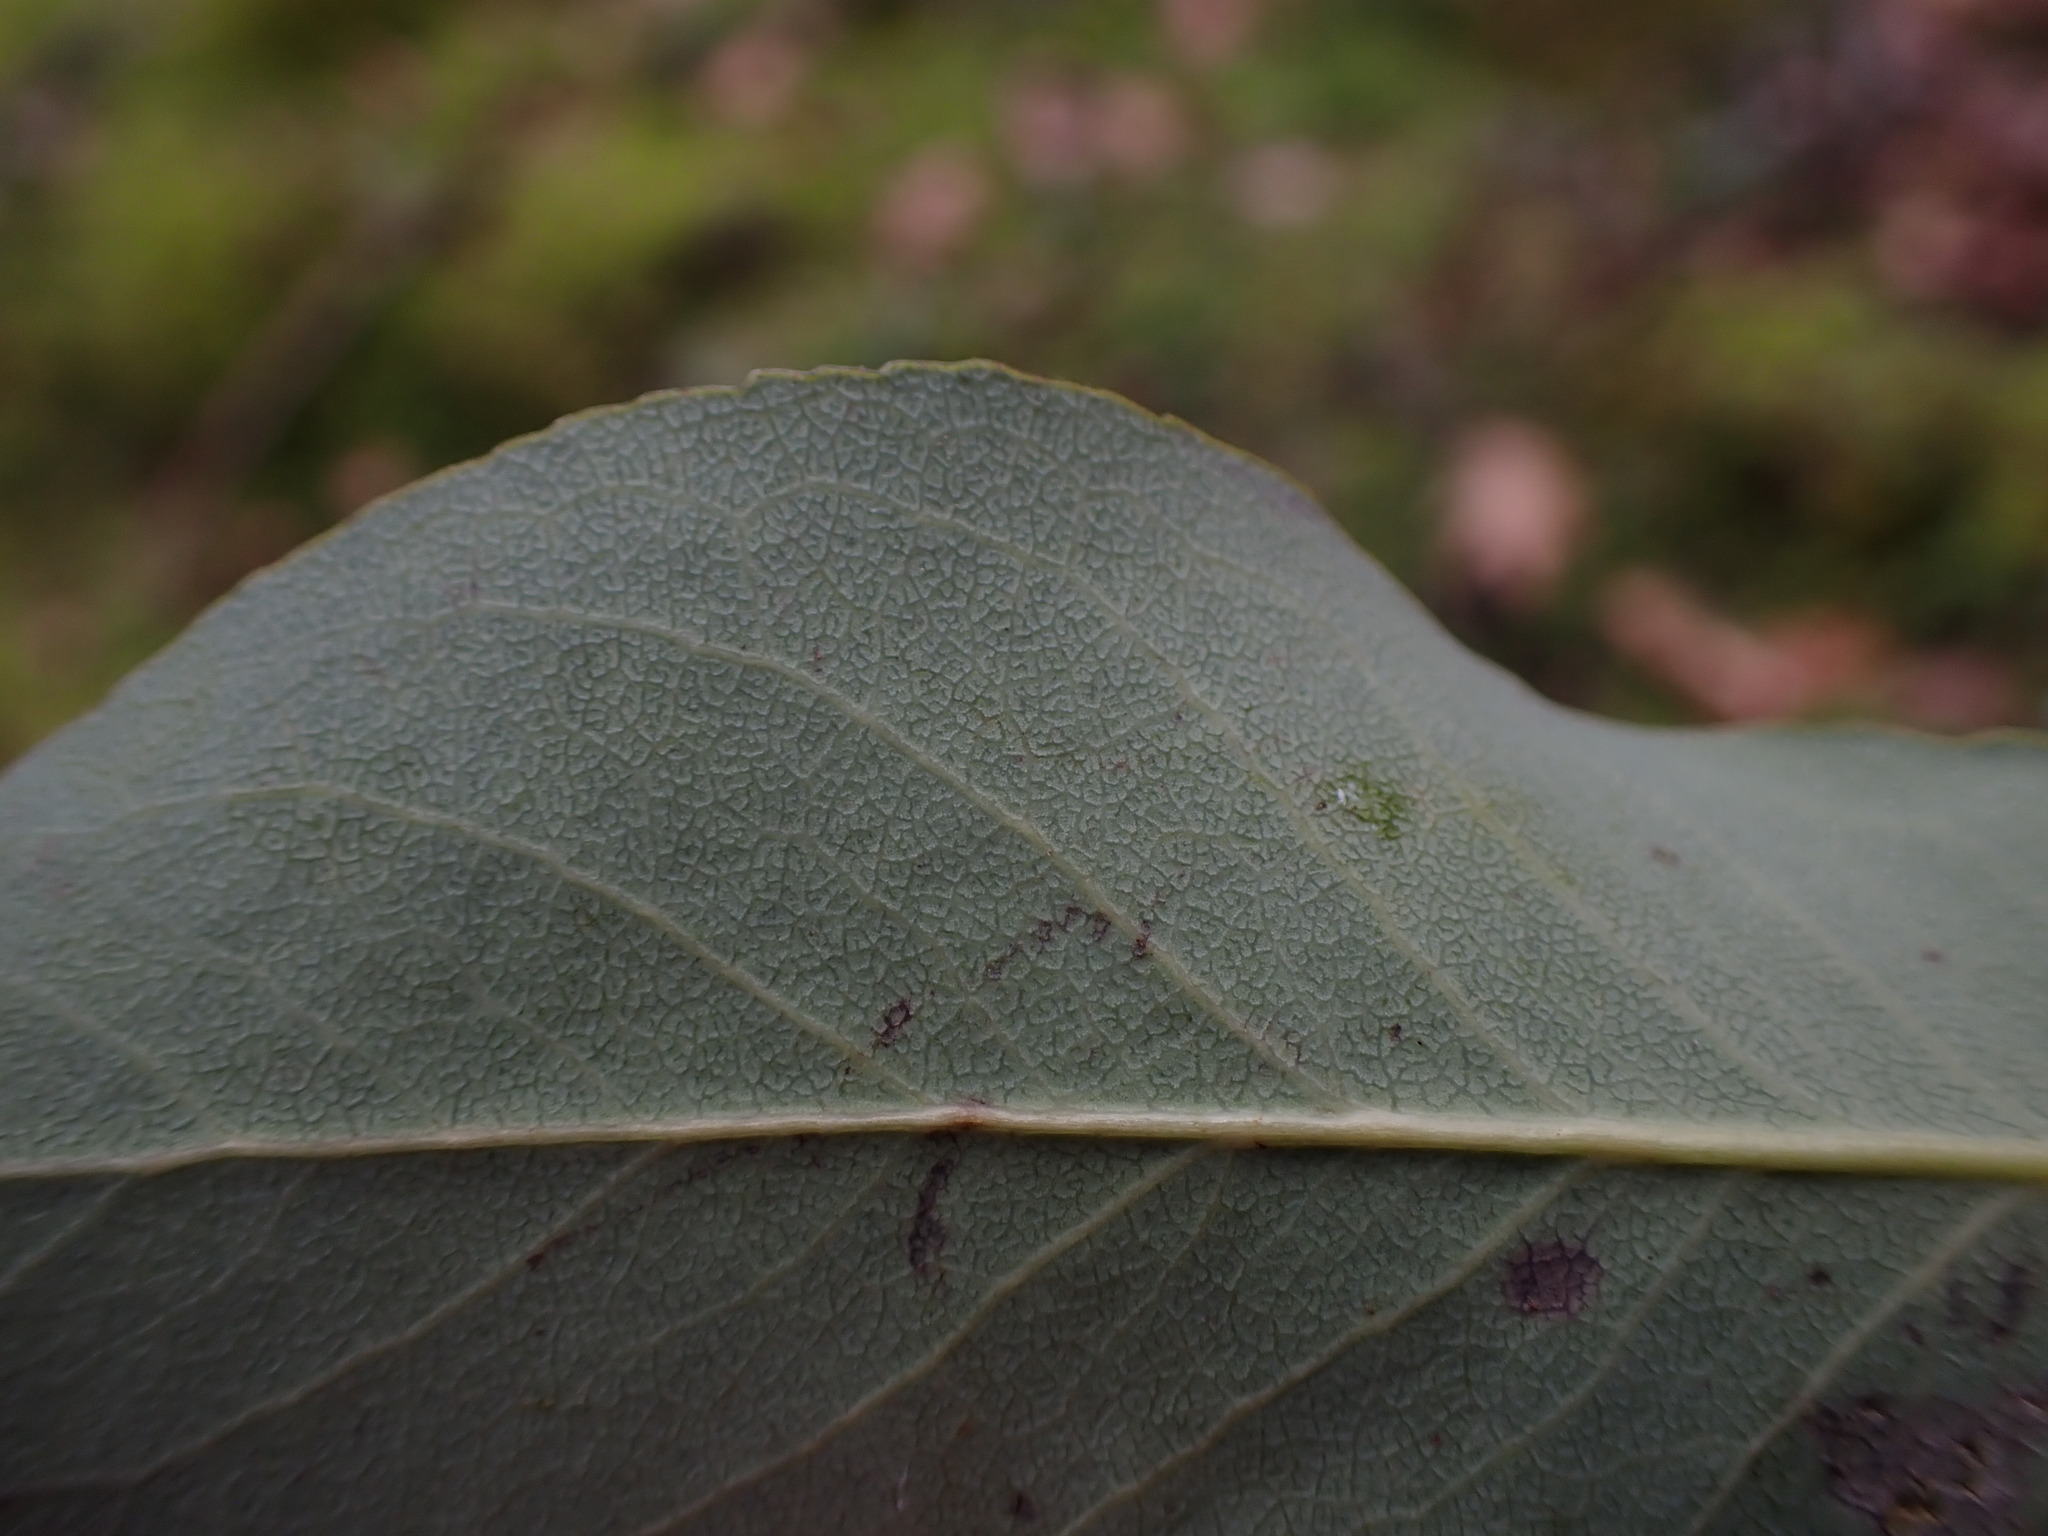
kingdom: Animalia
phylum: Arthropoda
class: Insecta
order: Lepidoptera
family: Gracillariidae
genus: Marmara
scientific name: Marmara arbutiella
